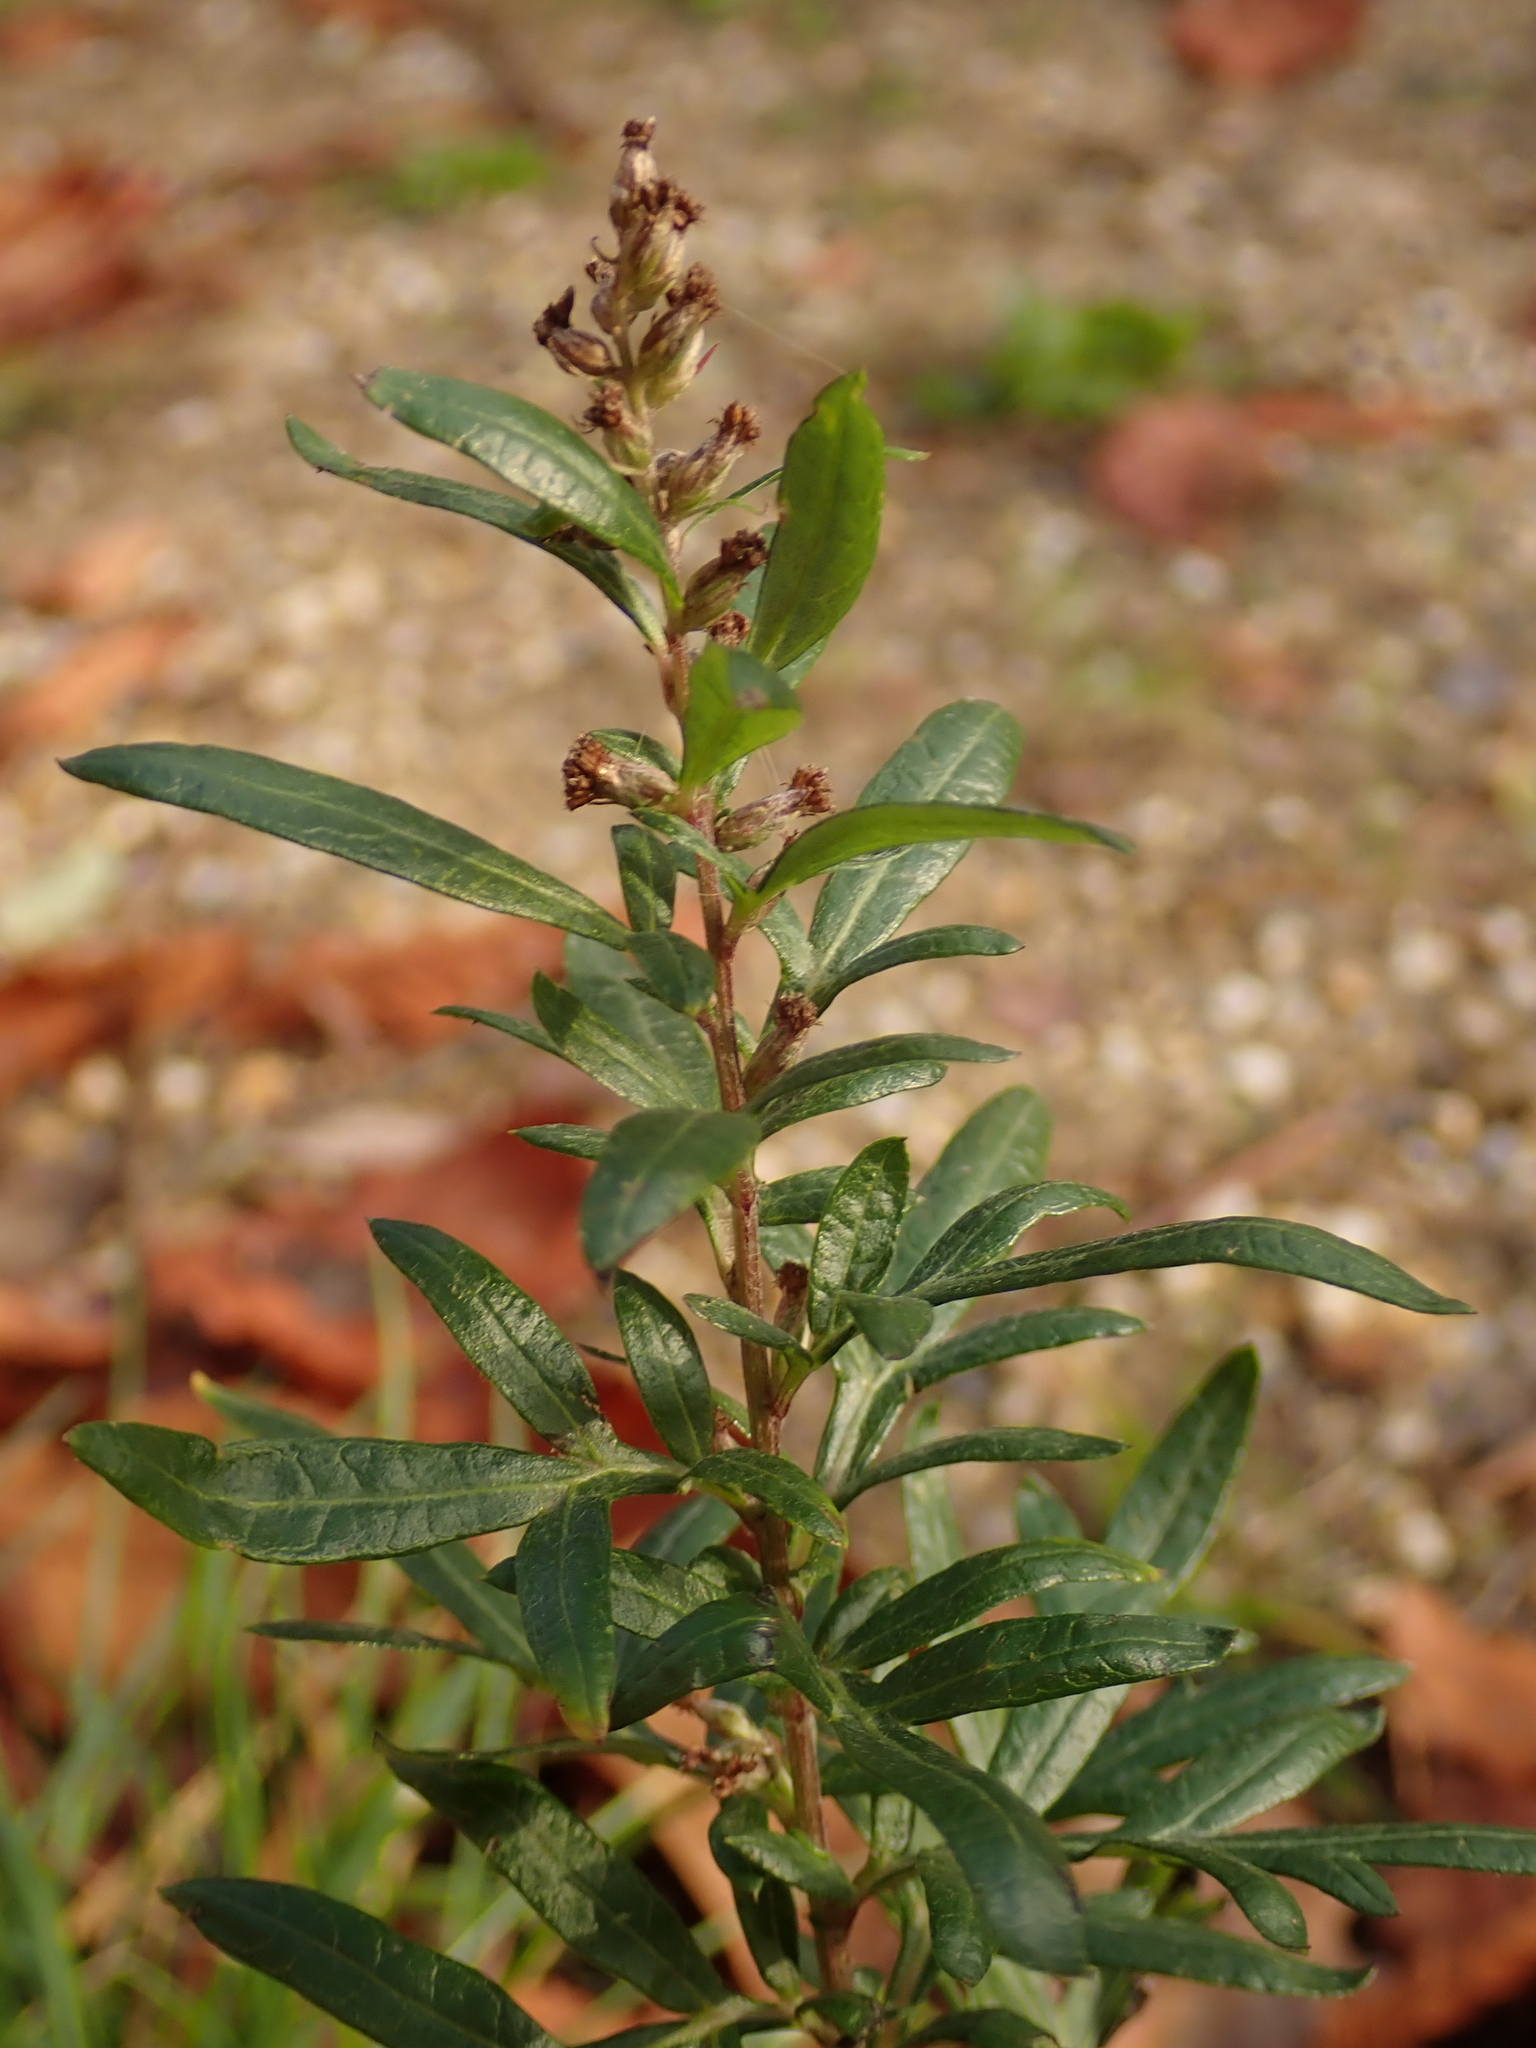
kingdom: Plantae
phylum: Tracheophyta
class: Magnoliopsida
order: Asterales
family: Asteraceae
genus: Artemisia
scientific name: Artemisia vulgaris
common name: Mugwort
